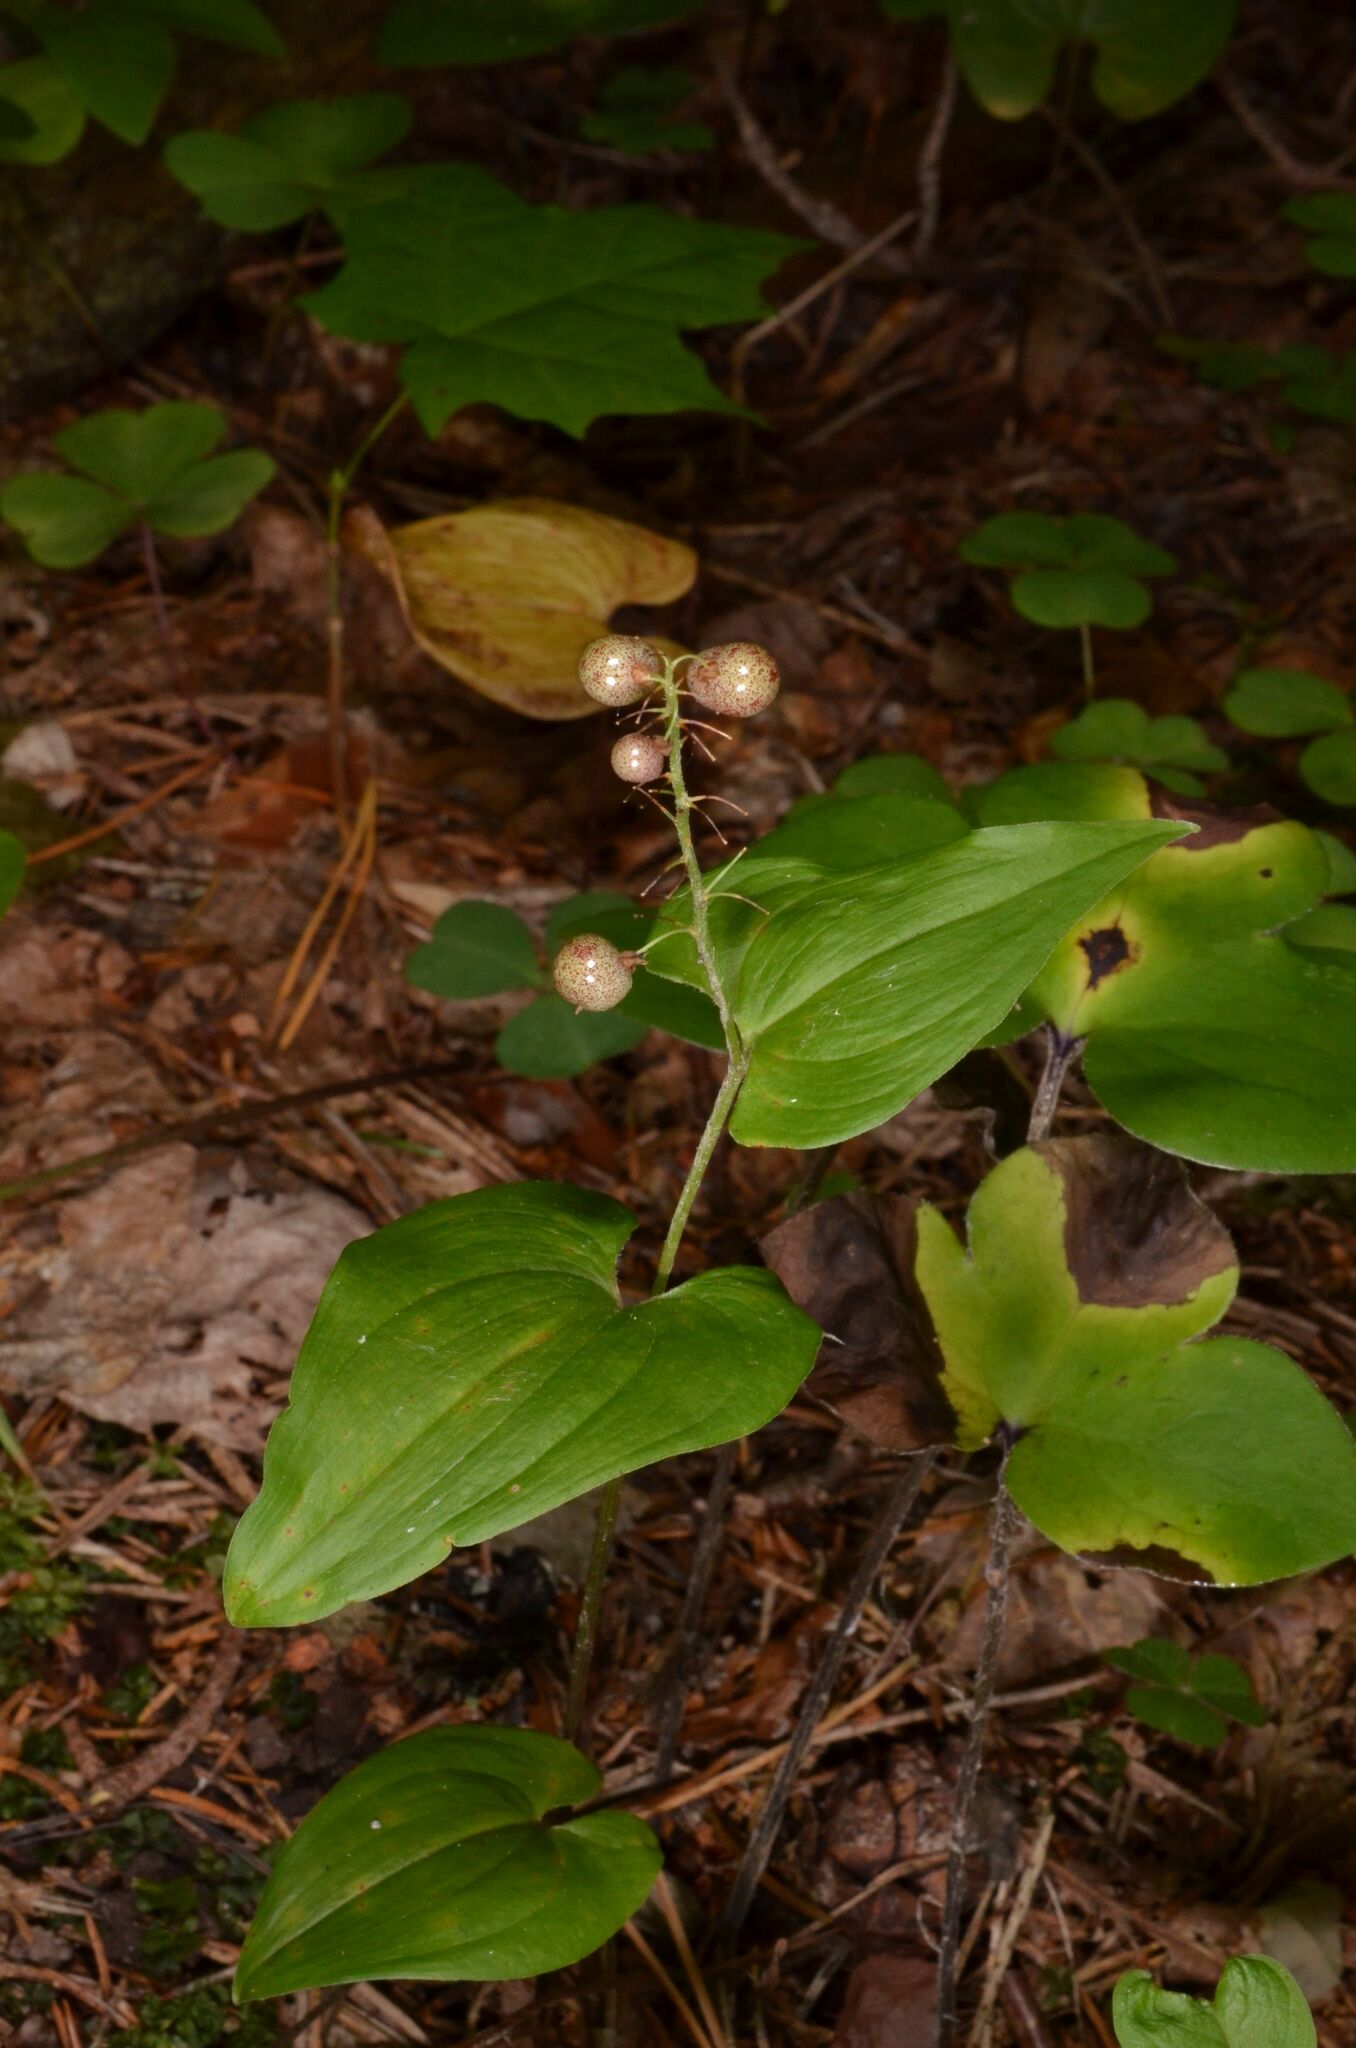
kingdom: Plantae
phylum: Tracheophyta
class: Liliopsida
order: Asparagales
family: Asparagaceae
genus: Maianthemum
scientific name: Maianthemum bifolium
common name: May lily
